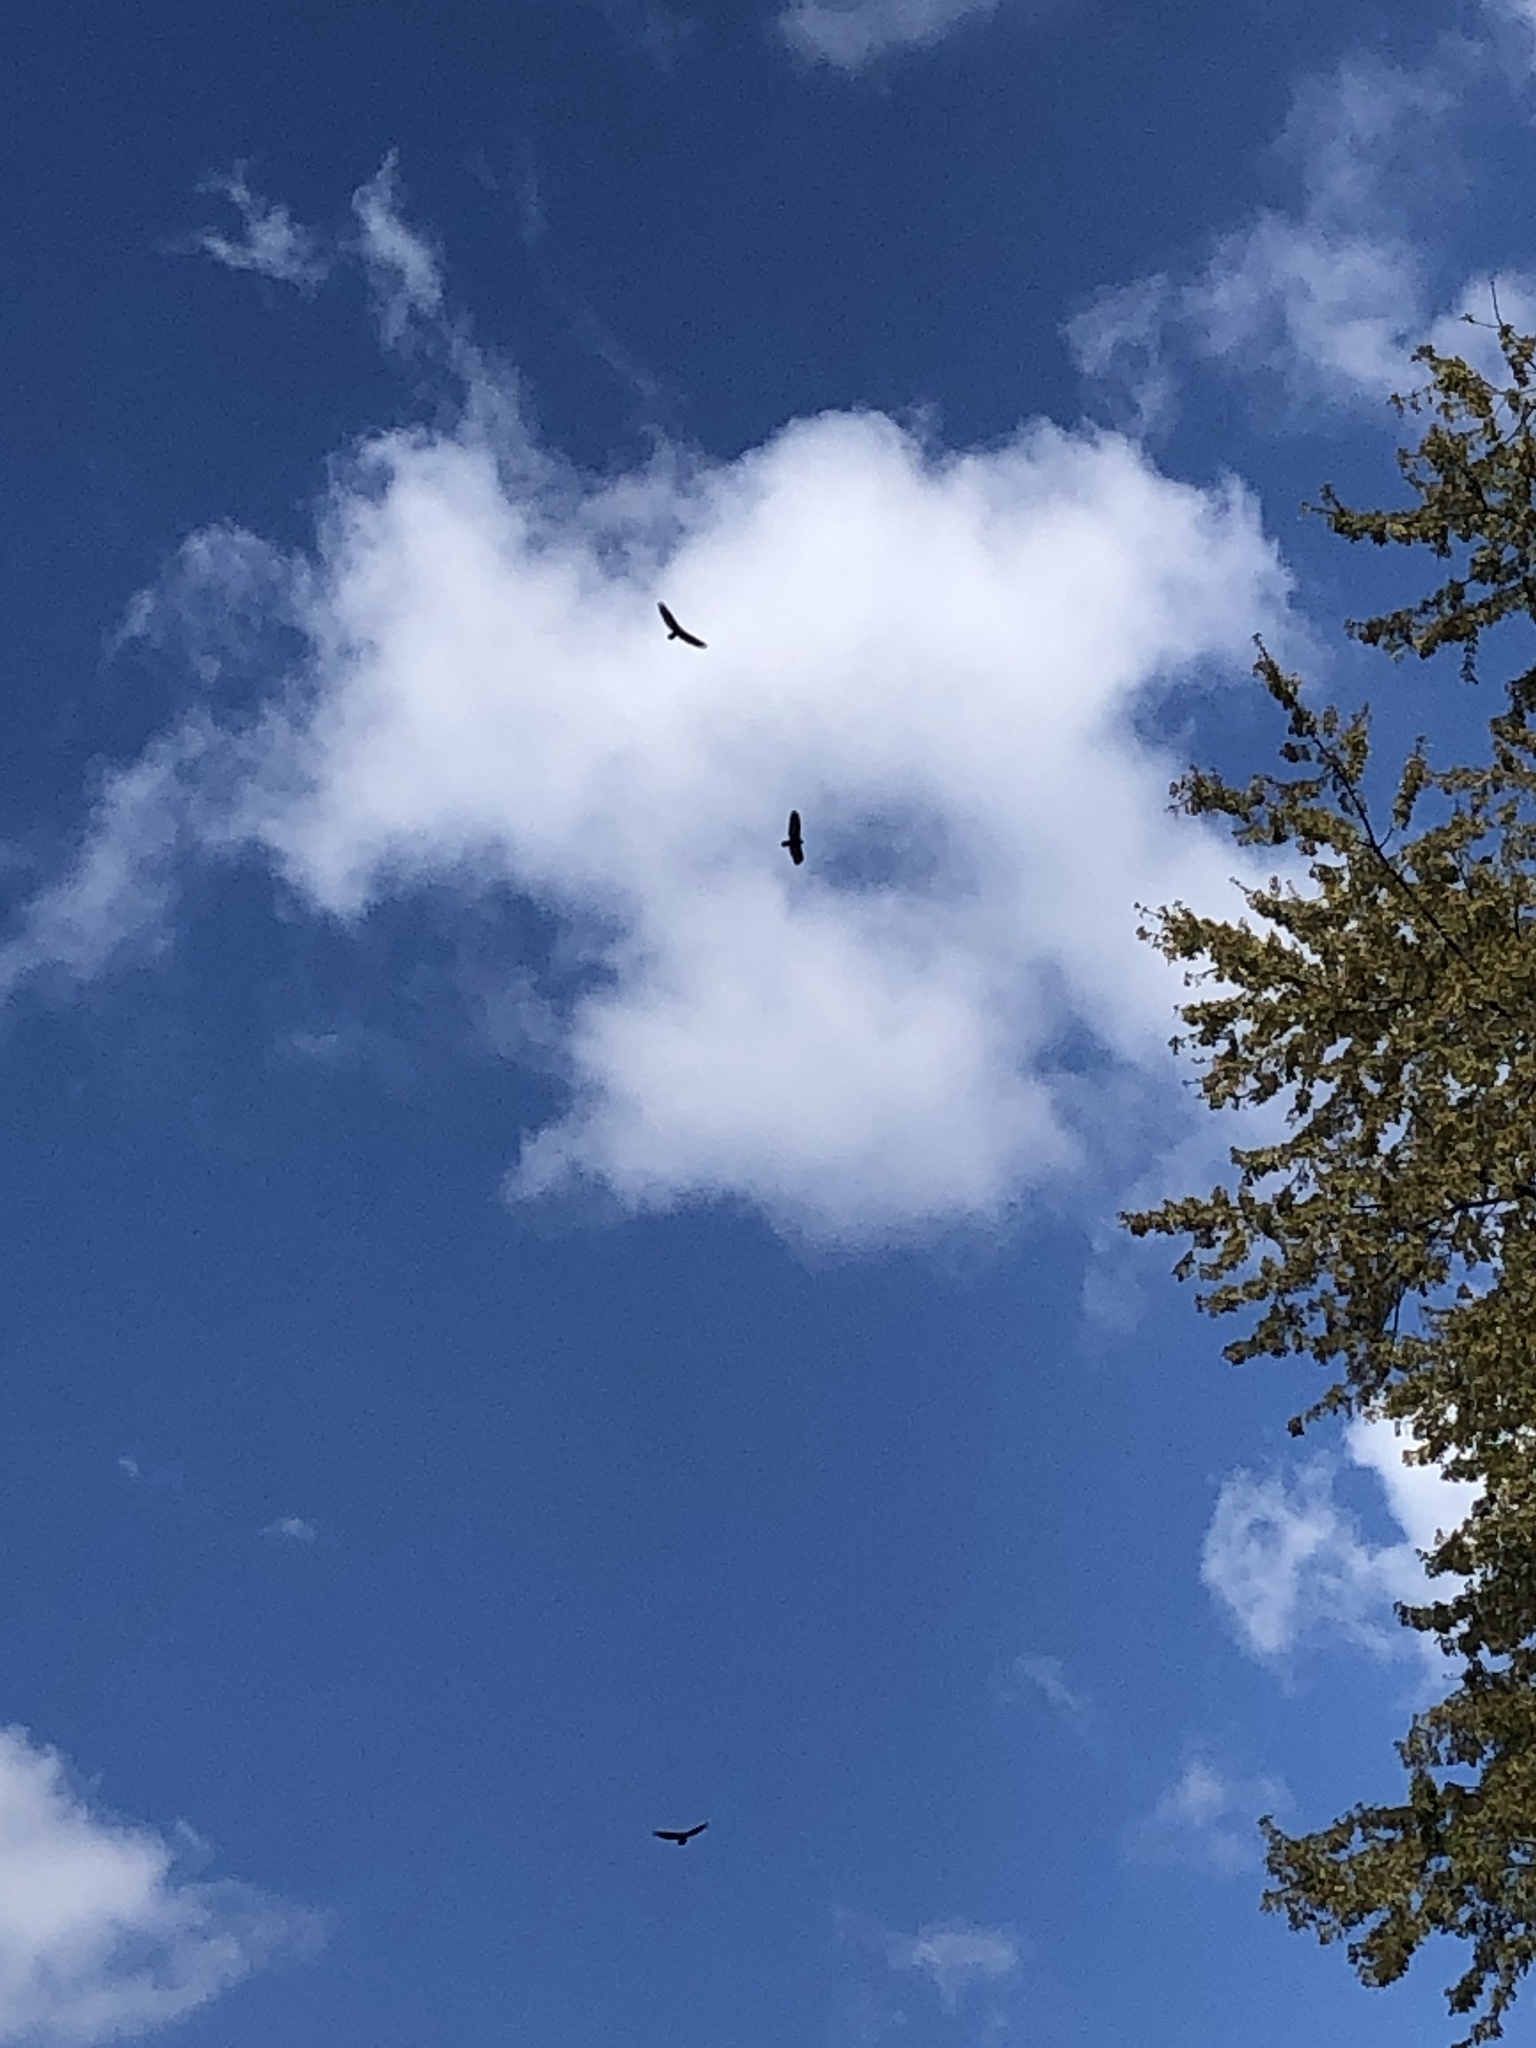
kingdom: Animalia
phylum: Chordata
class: Aves
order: Accipitriformes
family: Cathartidae
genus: Cathartes
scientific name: Cathartes aura
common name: Turkey vulture
